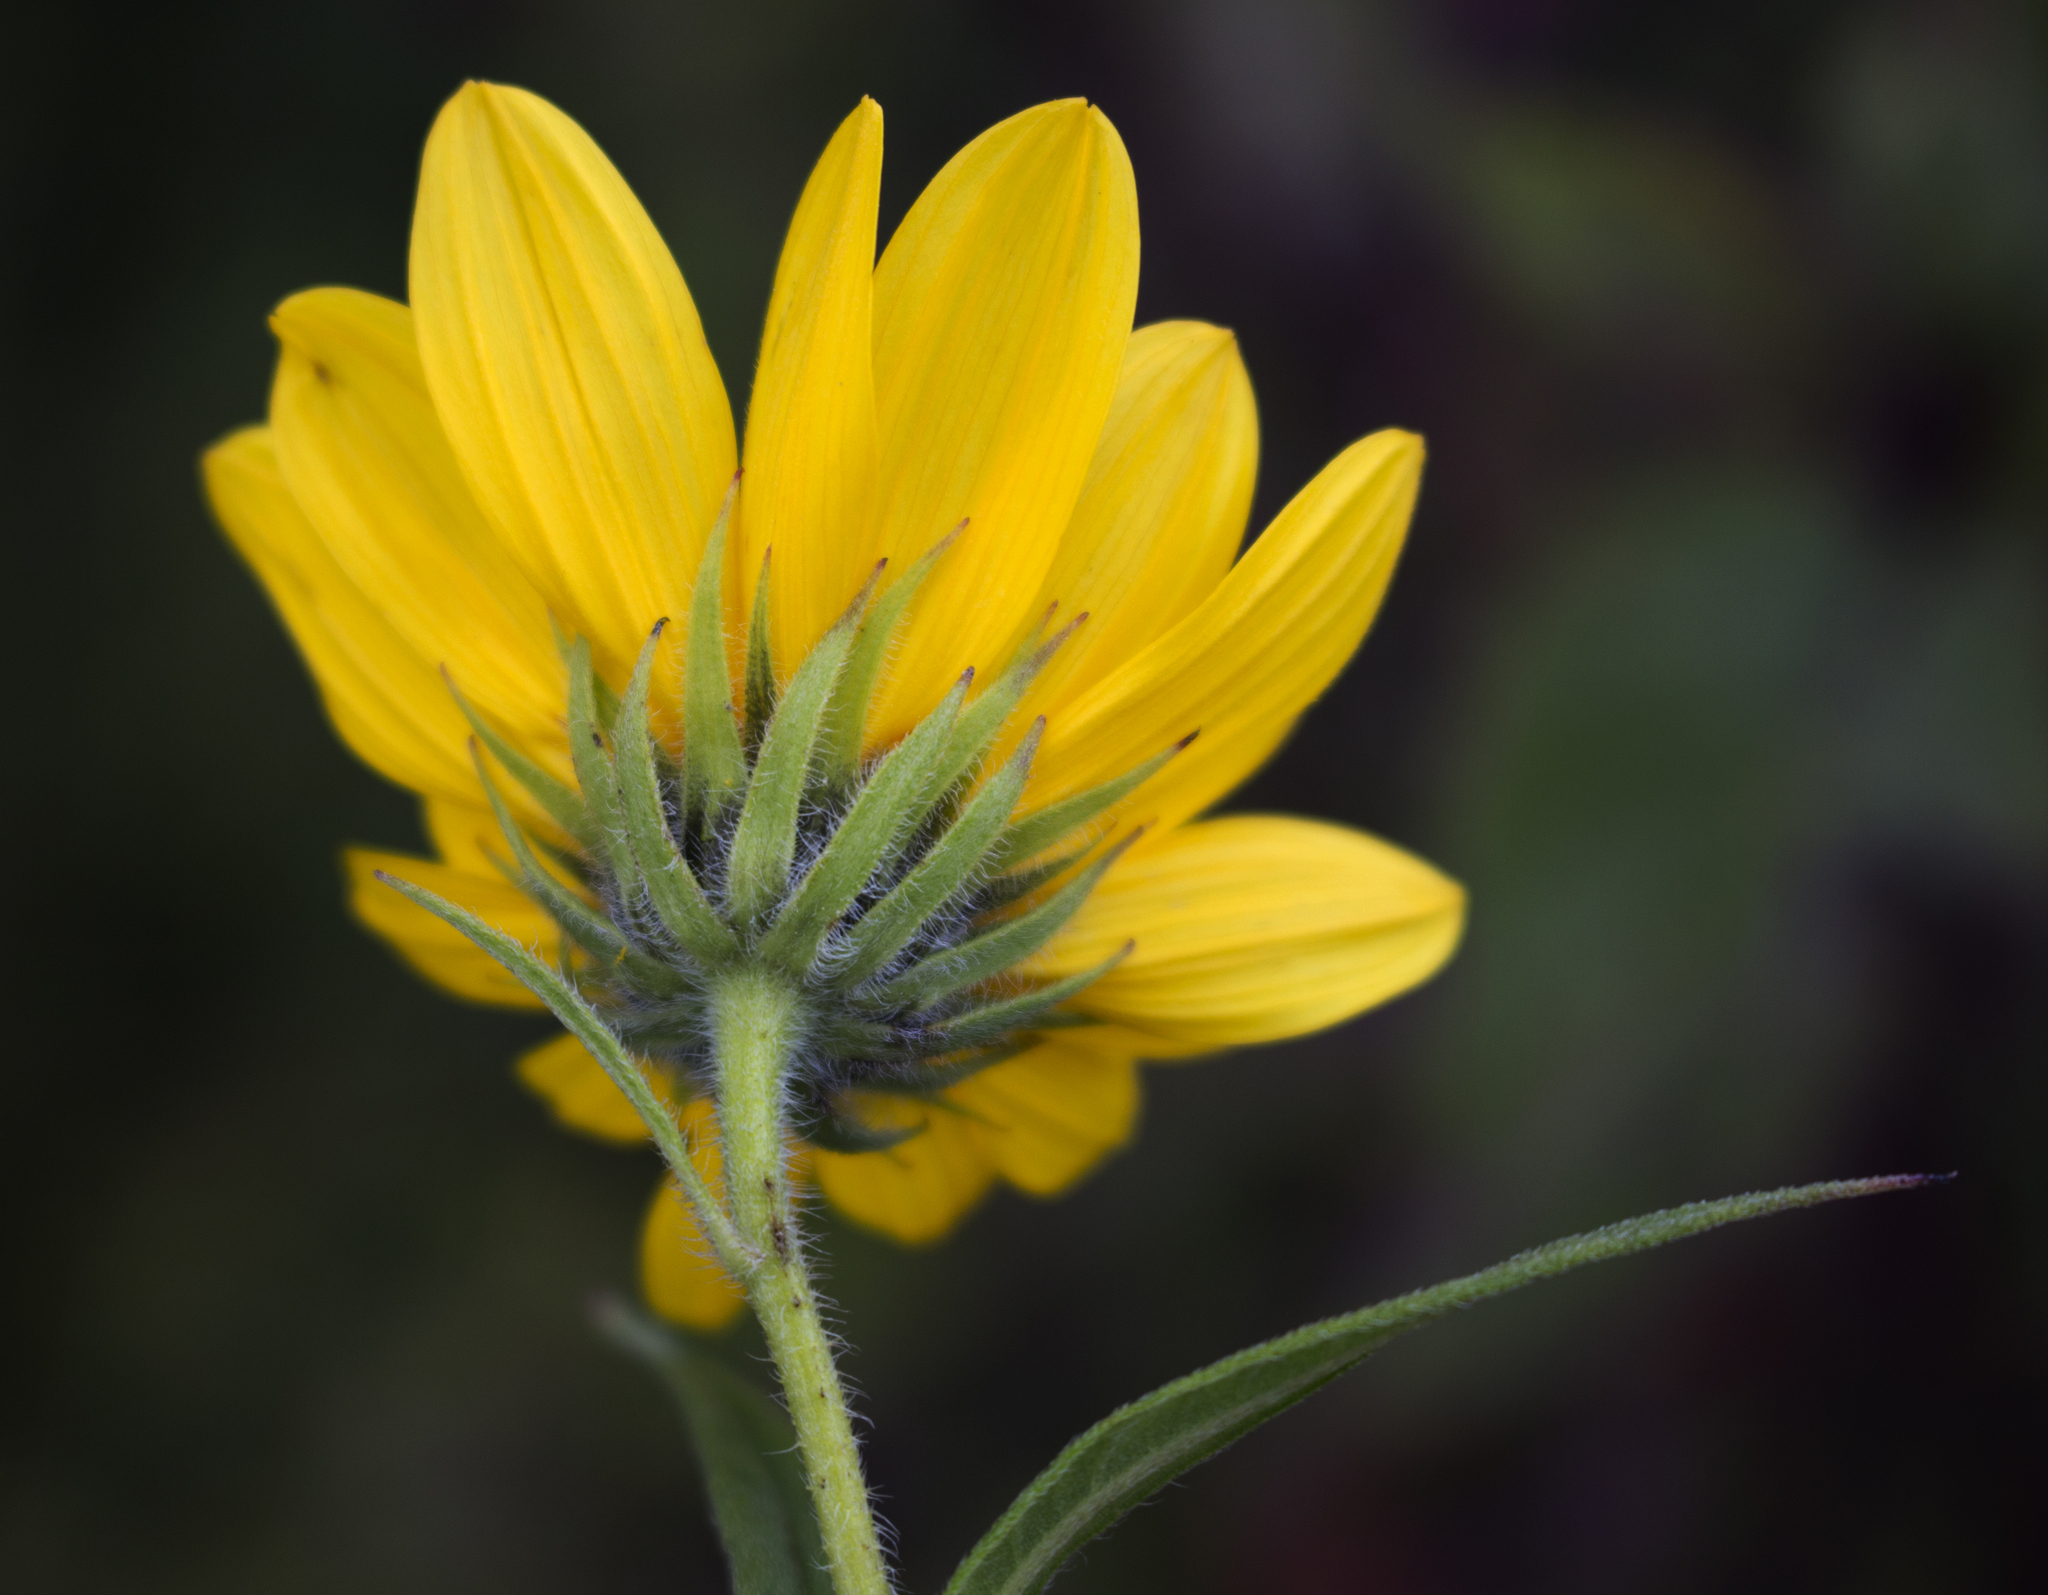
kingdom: Plantae
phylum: Tracheophyta
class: Magnoliopsida
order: Asterales
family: Asteraceae
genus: Helianthus
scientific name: Helianthus giganteus
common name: Giant sunflower
